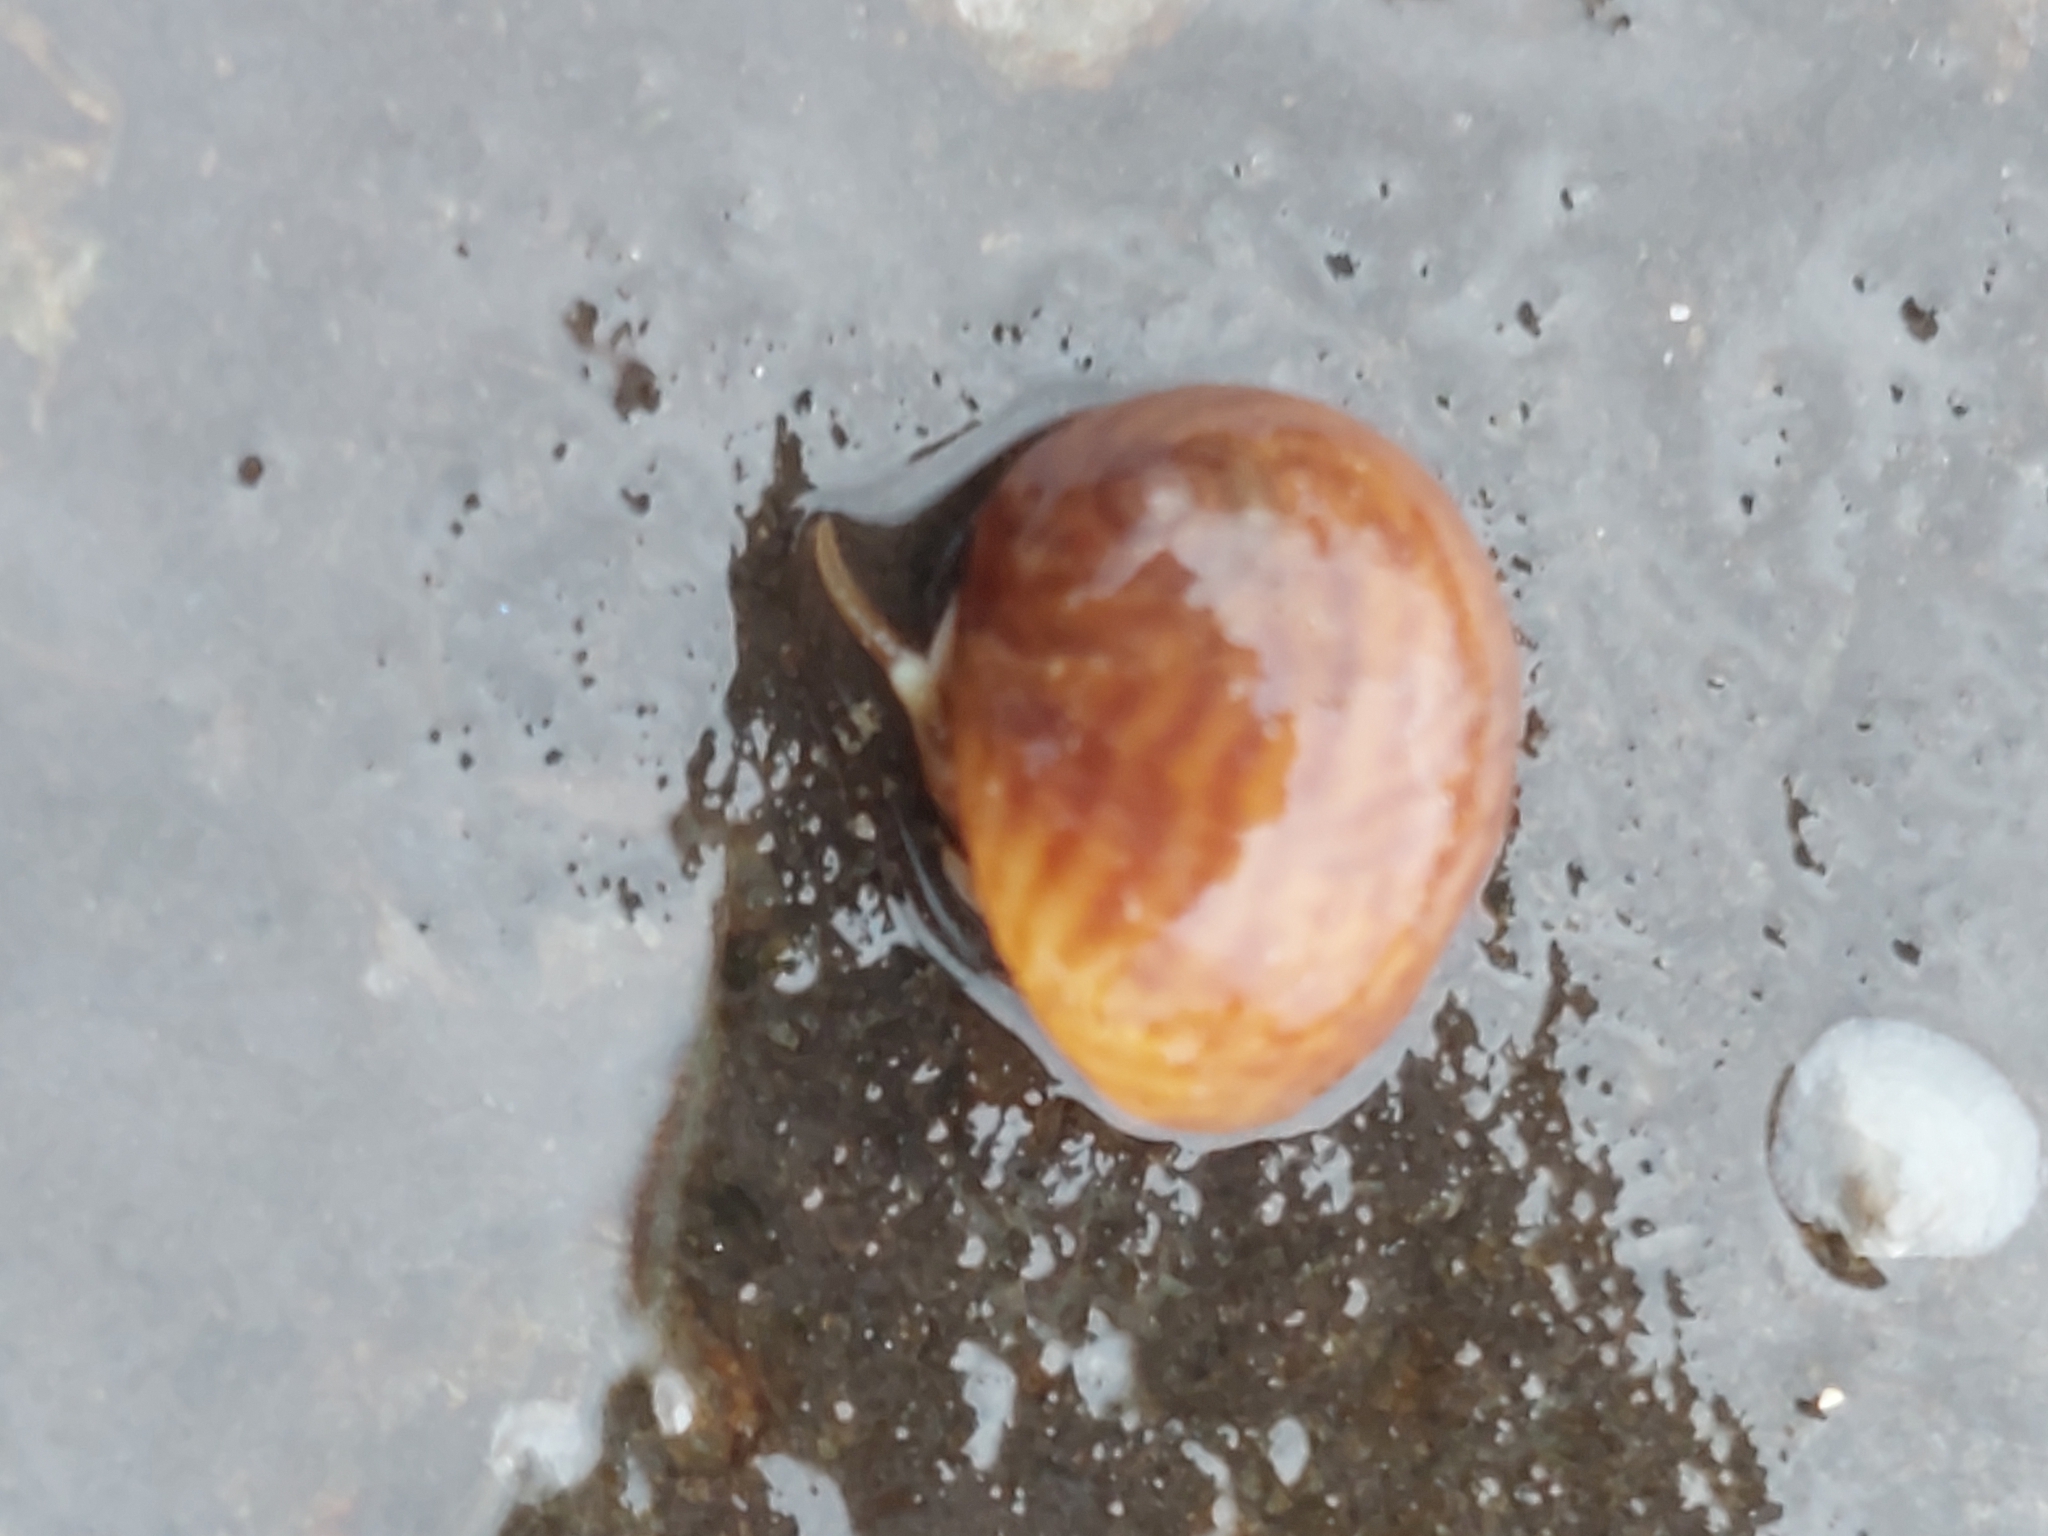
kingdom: Animalia
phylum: Arthropoda
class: Malacostraca
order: Decapoda
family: Paguridae
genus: Pagurus
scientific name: Pagurus bernhardus
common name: Hermit crab
